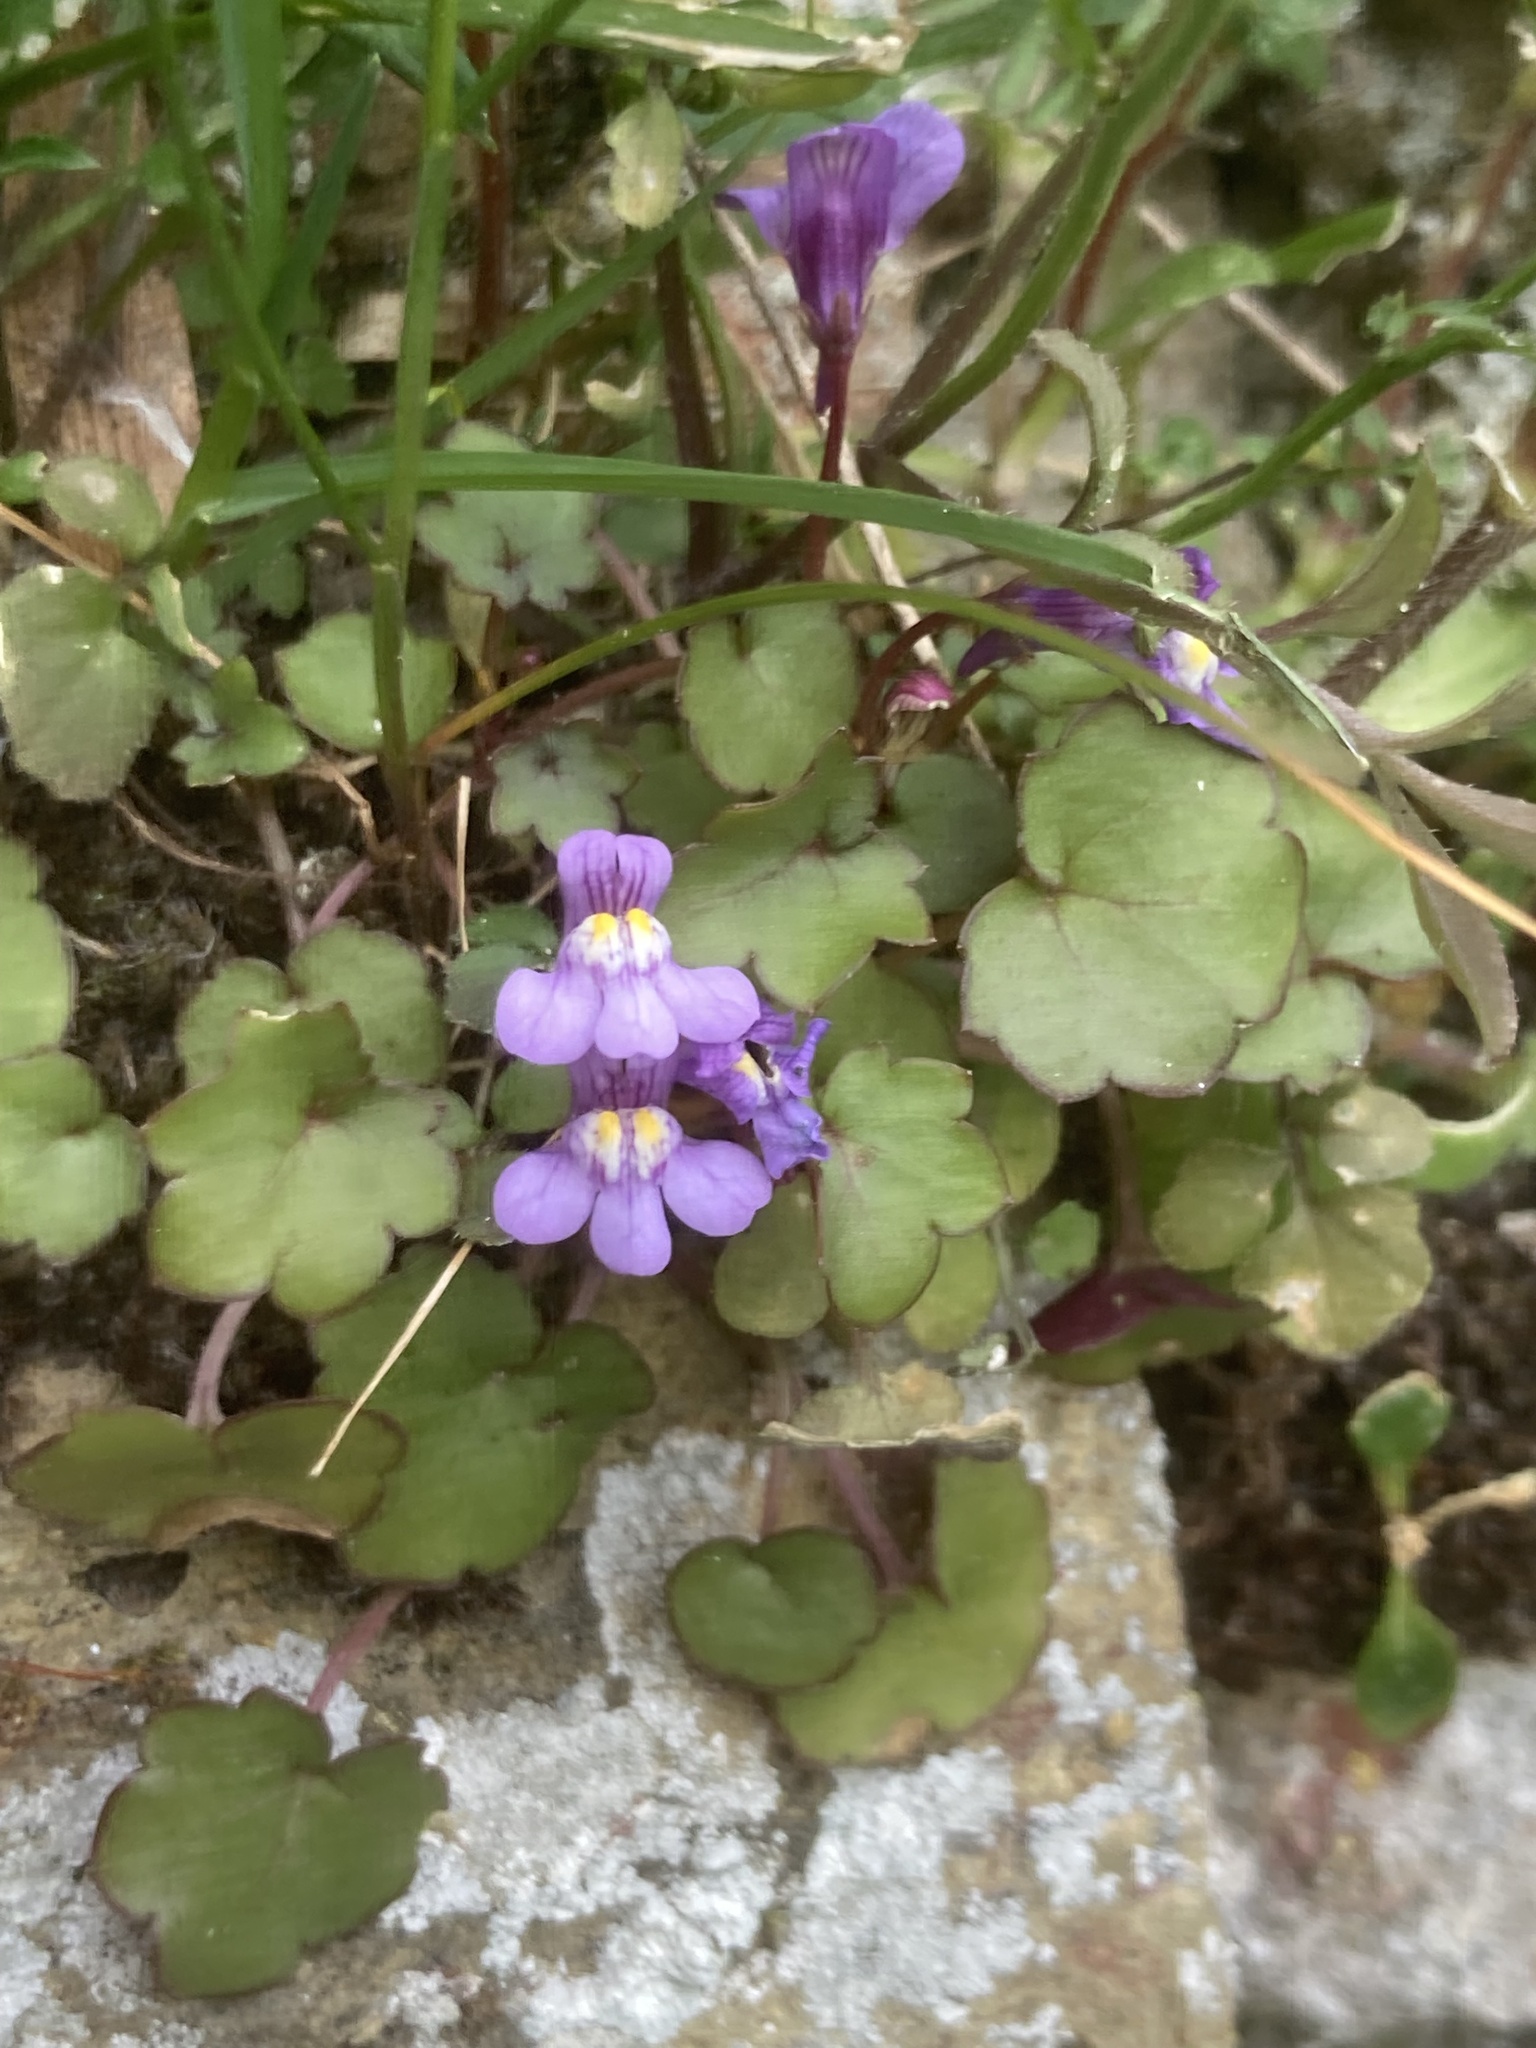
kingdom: Plantae
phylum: Tracheophyta
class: Magnoliopsida
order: Lamiales
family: Plantaginaceae
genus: Cymbalaria
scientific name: Cymbalaria muralis
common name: Ivy-leaved toadflax
